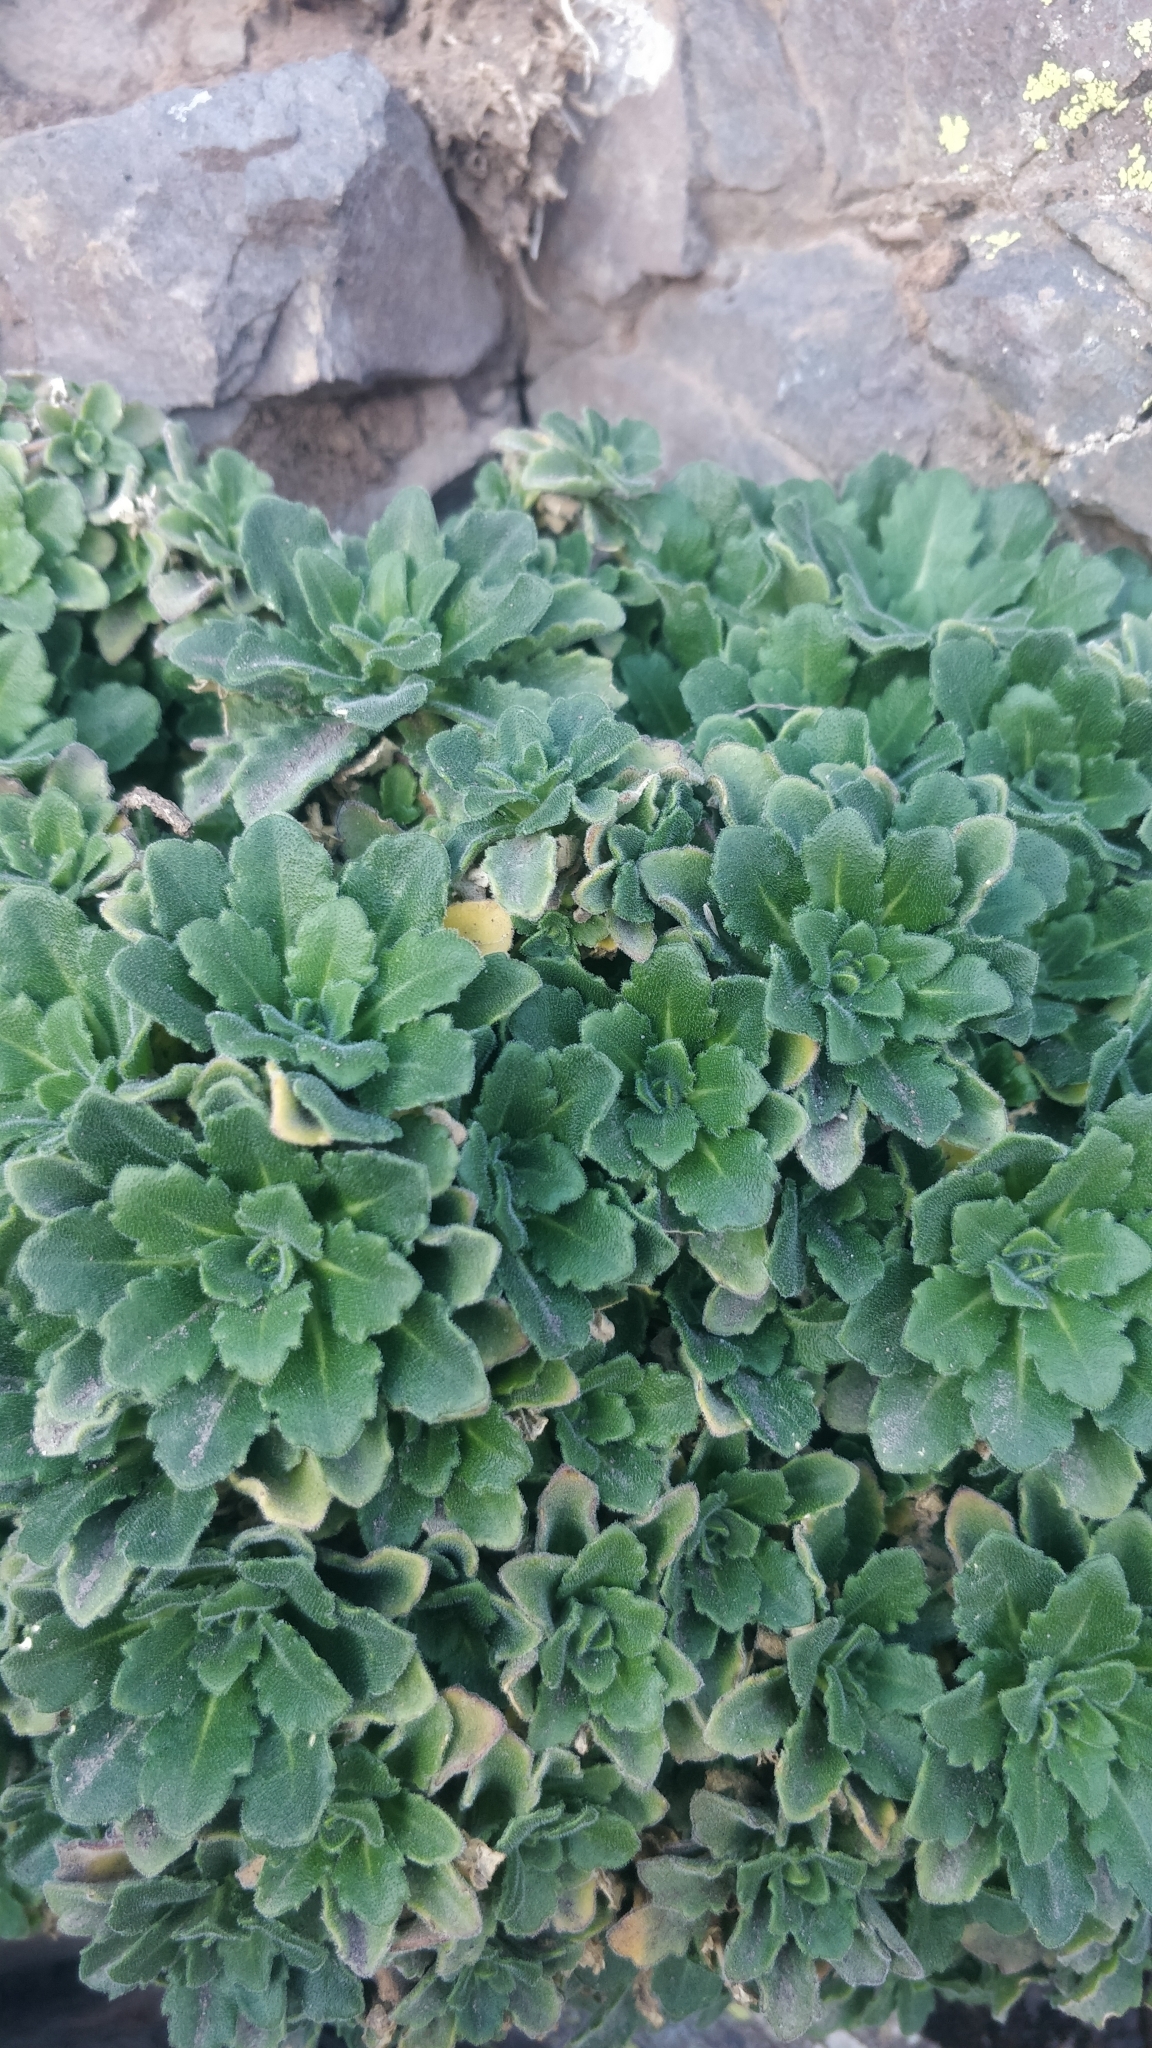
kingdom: Plantae
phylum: Tracheophyta
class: Magnoliopsida
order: Brassicales
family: Brassicaceae
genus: Arabis
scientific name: Arabis caucasica
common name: Gray rockcress
